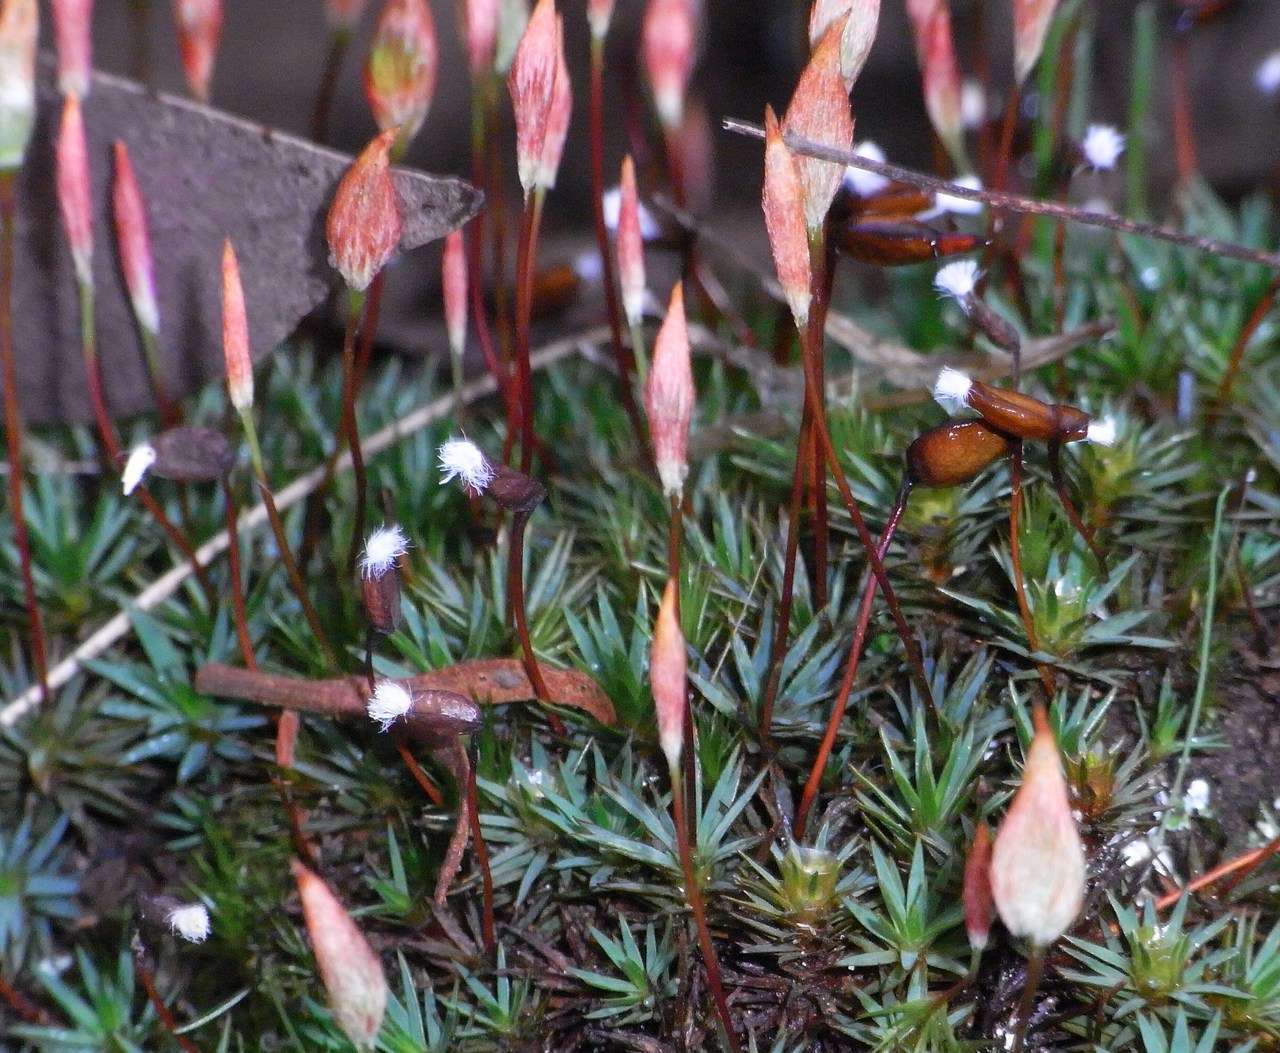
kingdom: Plantae
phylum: Bryophyta
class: Polytrichopsida
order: Polytrichales
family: Polytrichaceae
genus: Dawsonia
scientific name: Dawsonia longiseta
